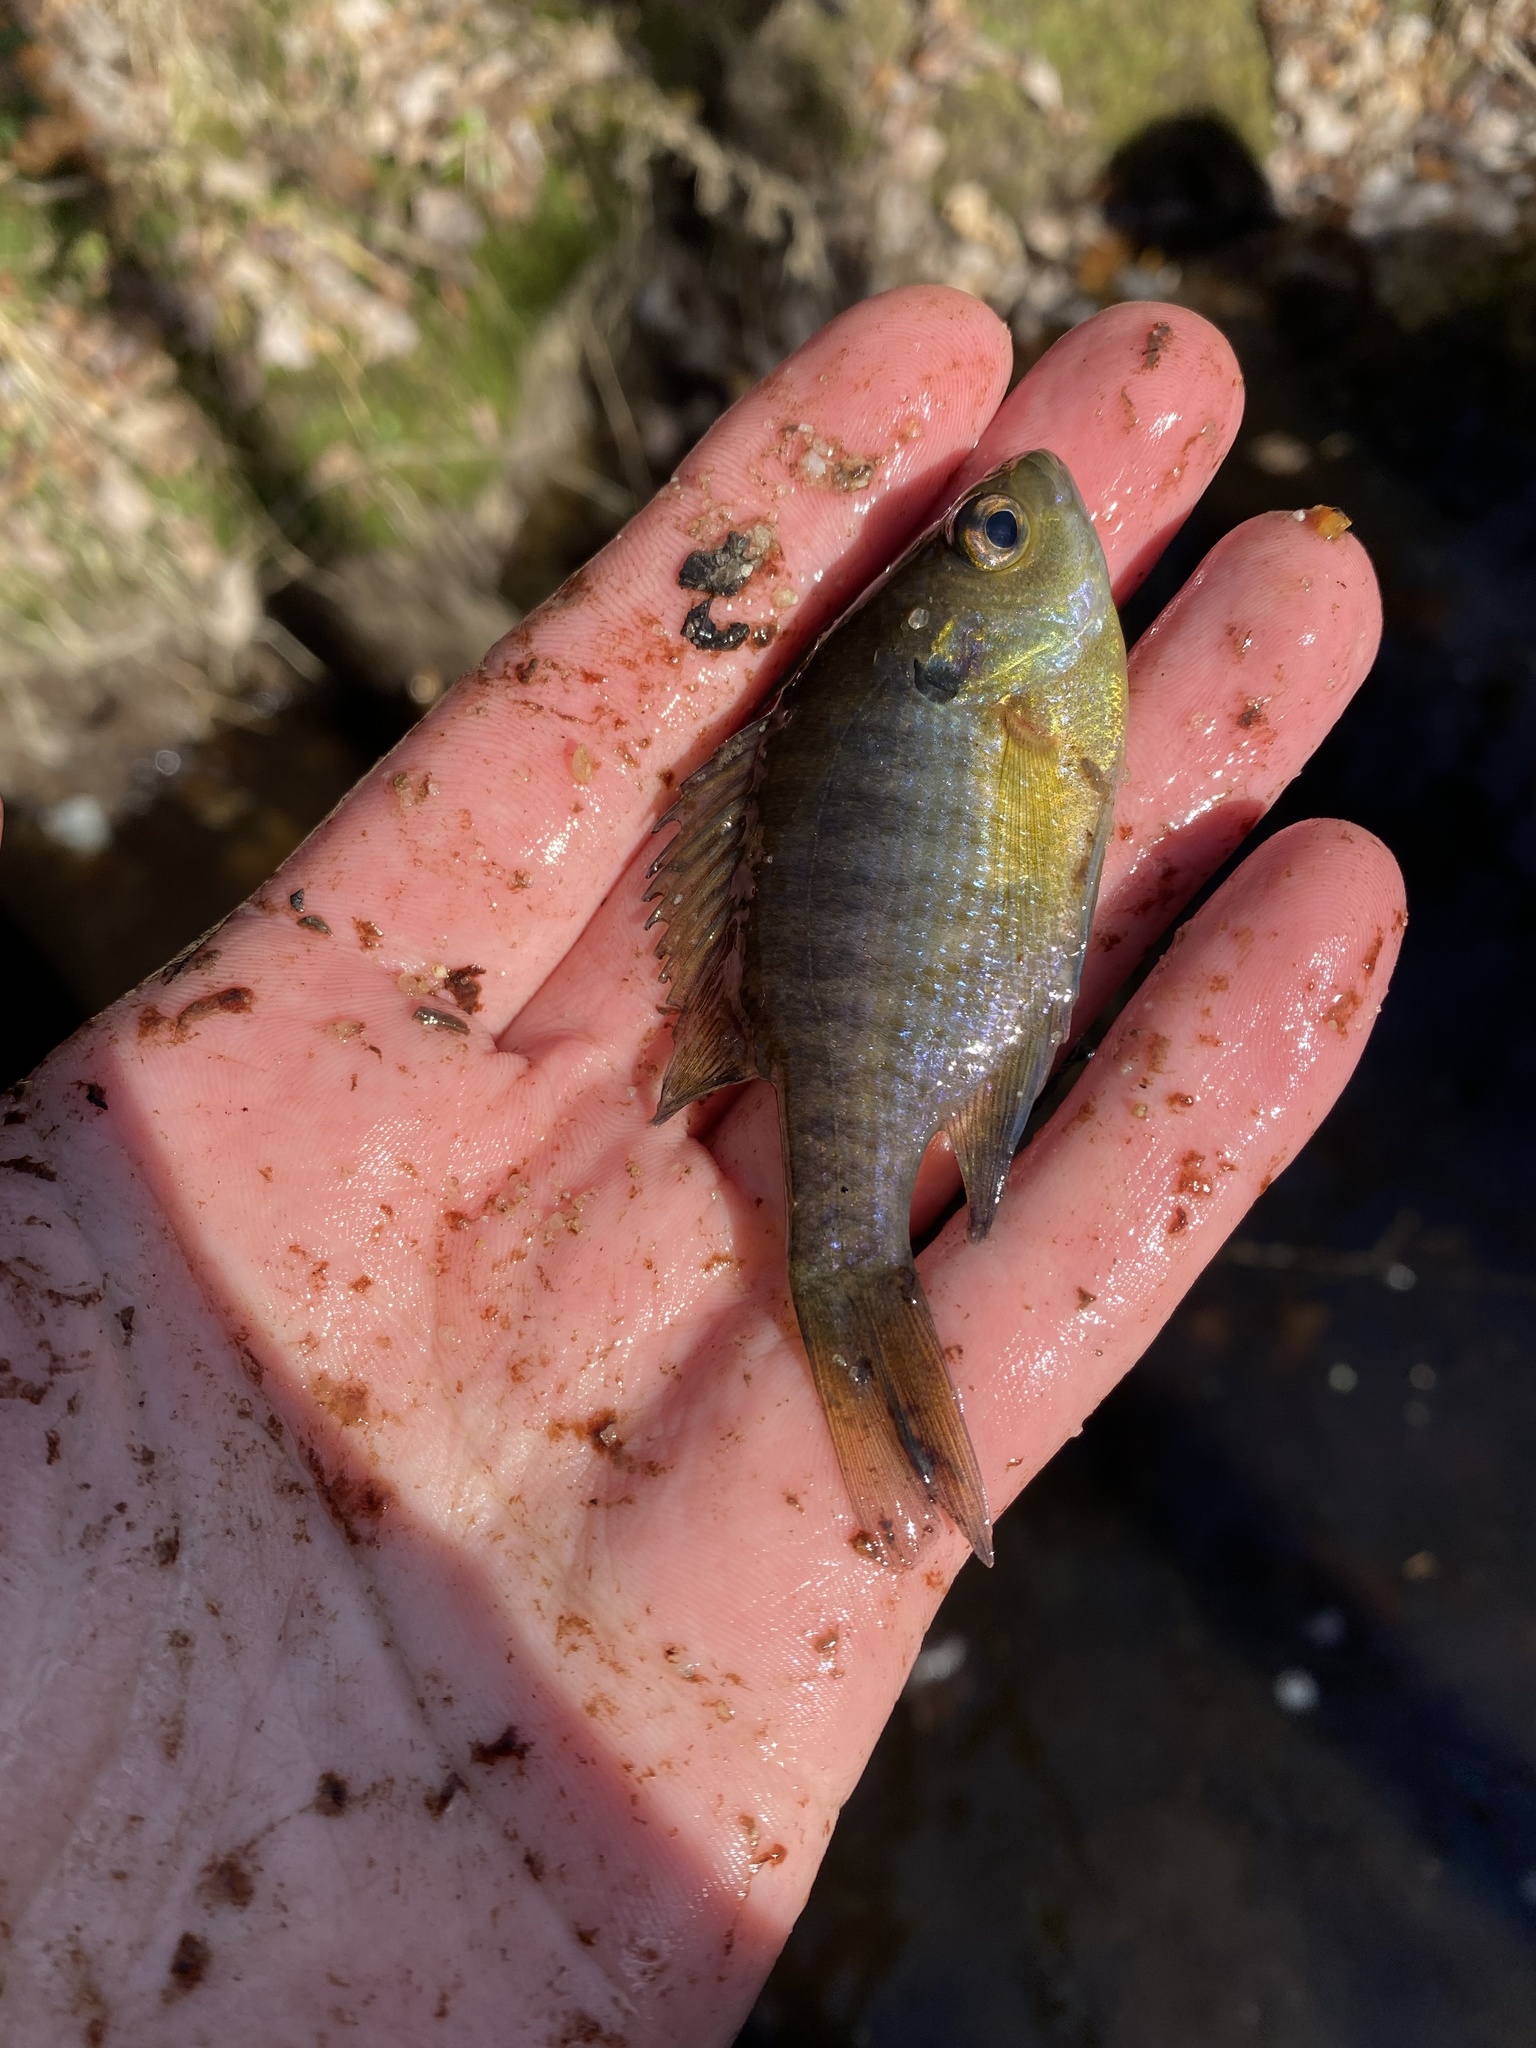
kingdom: Animalia
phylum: Chordata
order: Perciformes
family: Centrarchidae
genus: Lepomis
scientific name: Lepomis macrochirus
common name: Bluegill
